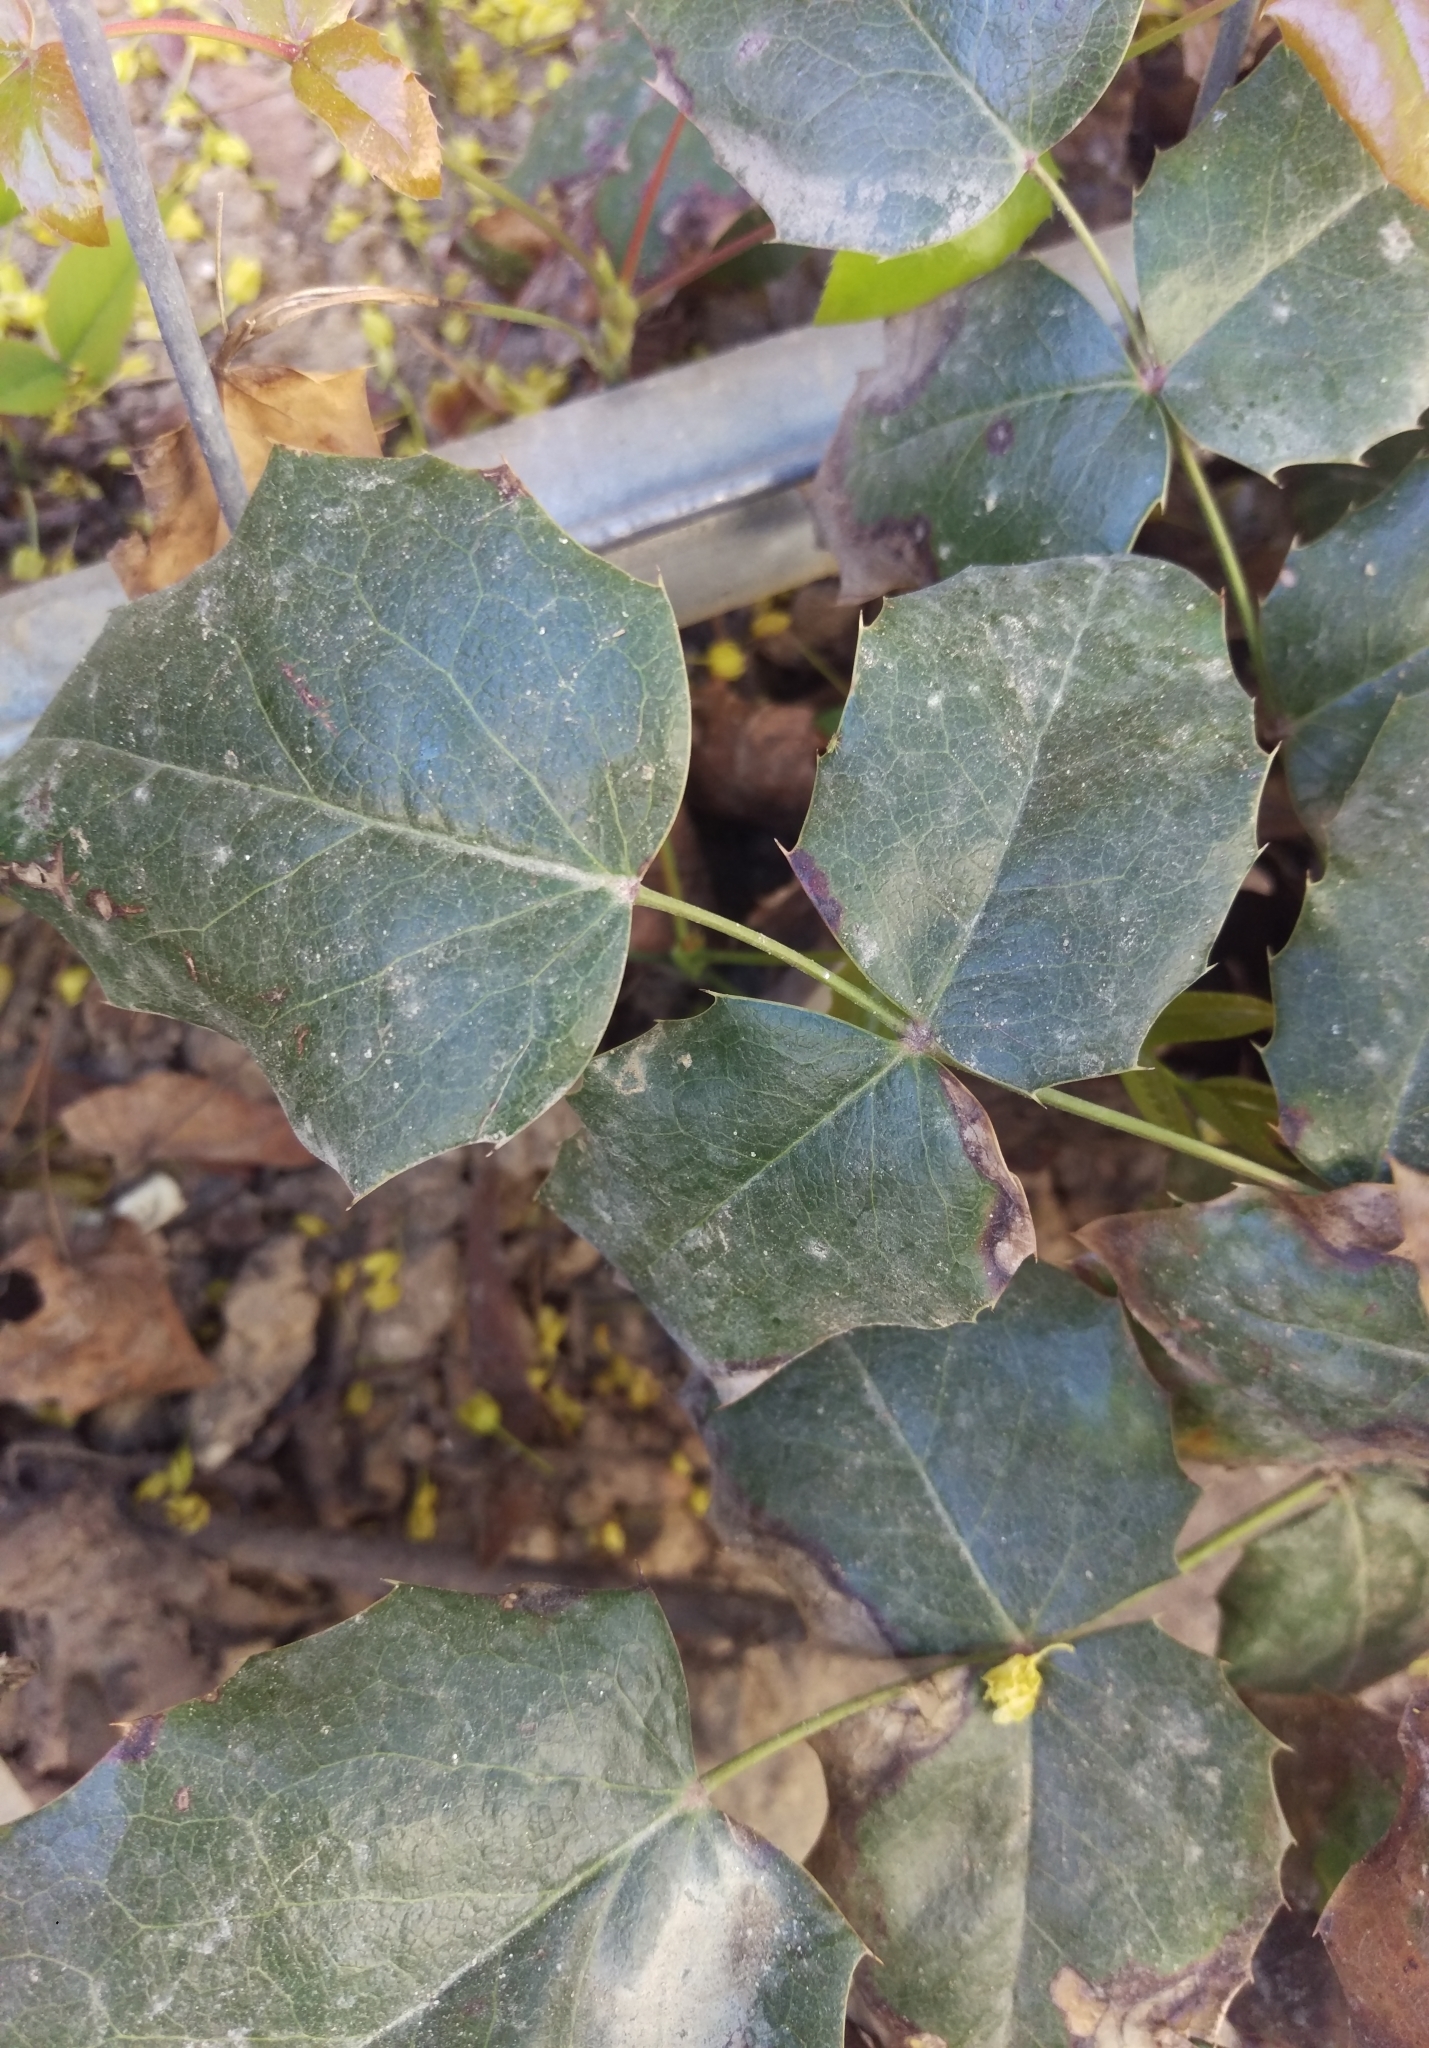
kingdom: Plantae
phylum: Tracheophyta
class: Magnoliopsida
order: Ranunculales
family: Berberidaceae
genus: Mahonia
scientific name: Mahonia aquifolium
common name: Oregon-grape
